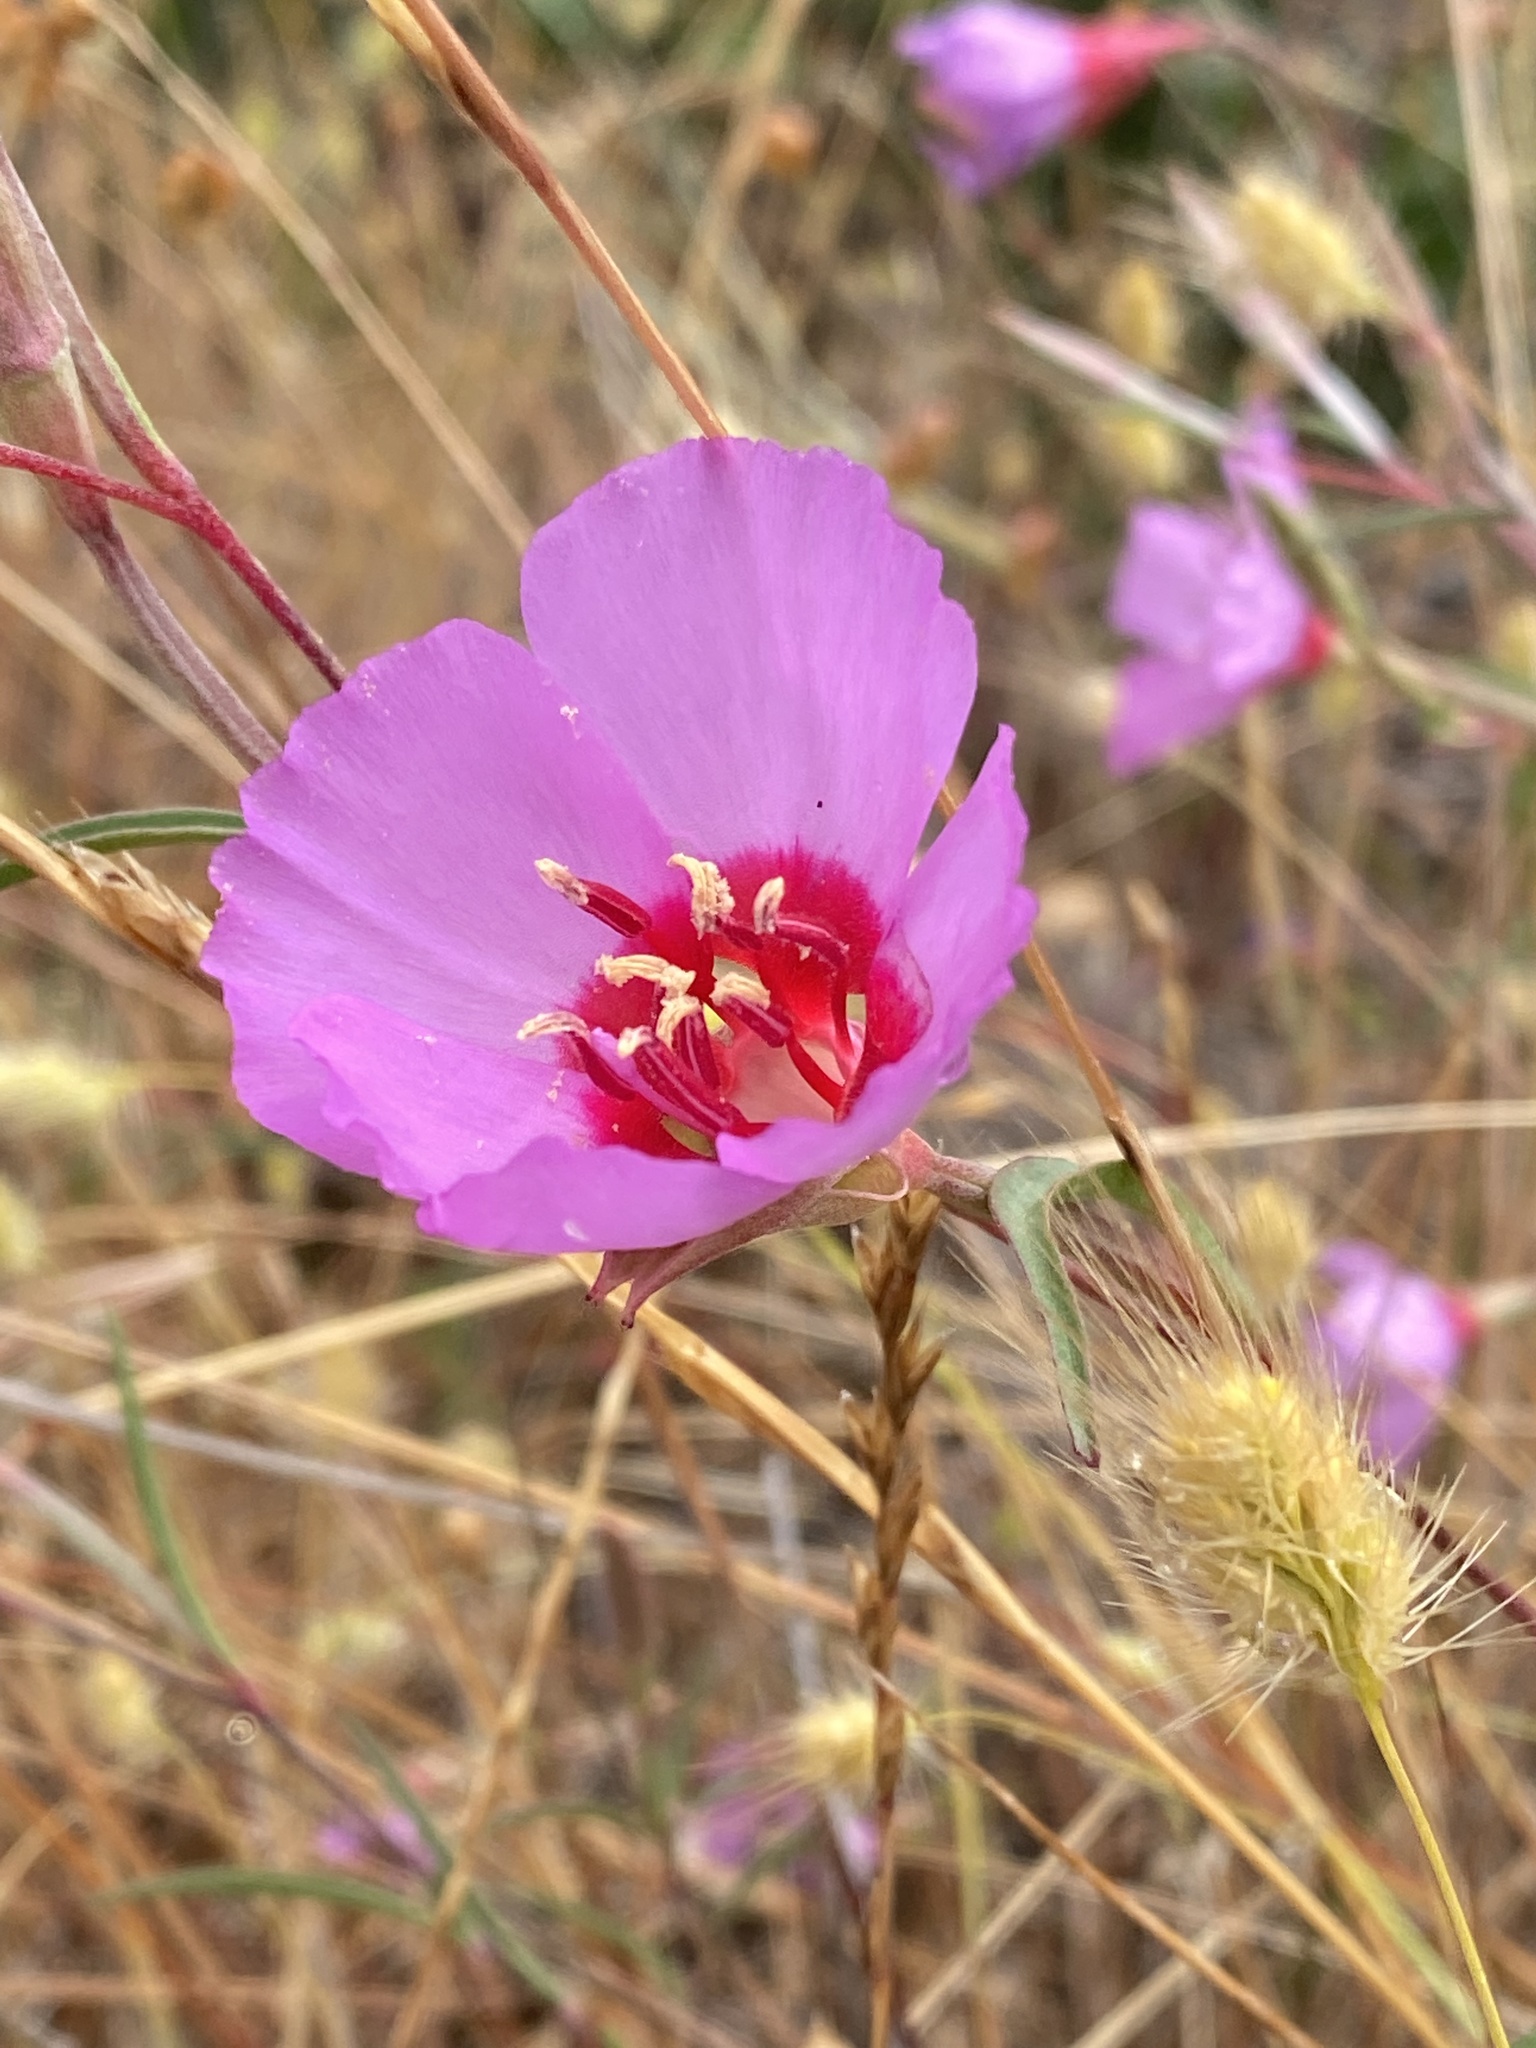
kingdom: Plantae
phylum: Tracheophyta
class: Magnoliopsida
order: Myrtales
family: Onagraceae
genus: Clarkia
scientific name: Clarkia rubicunda
